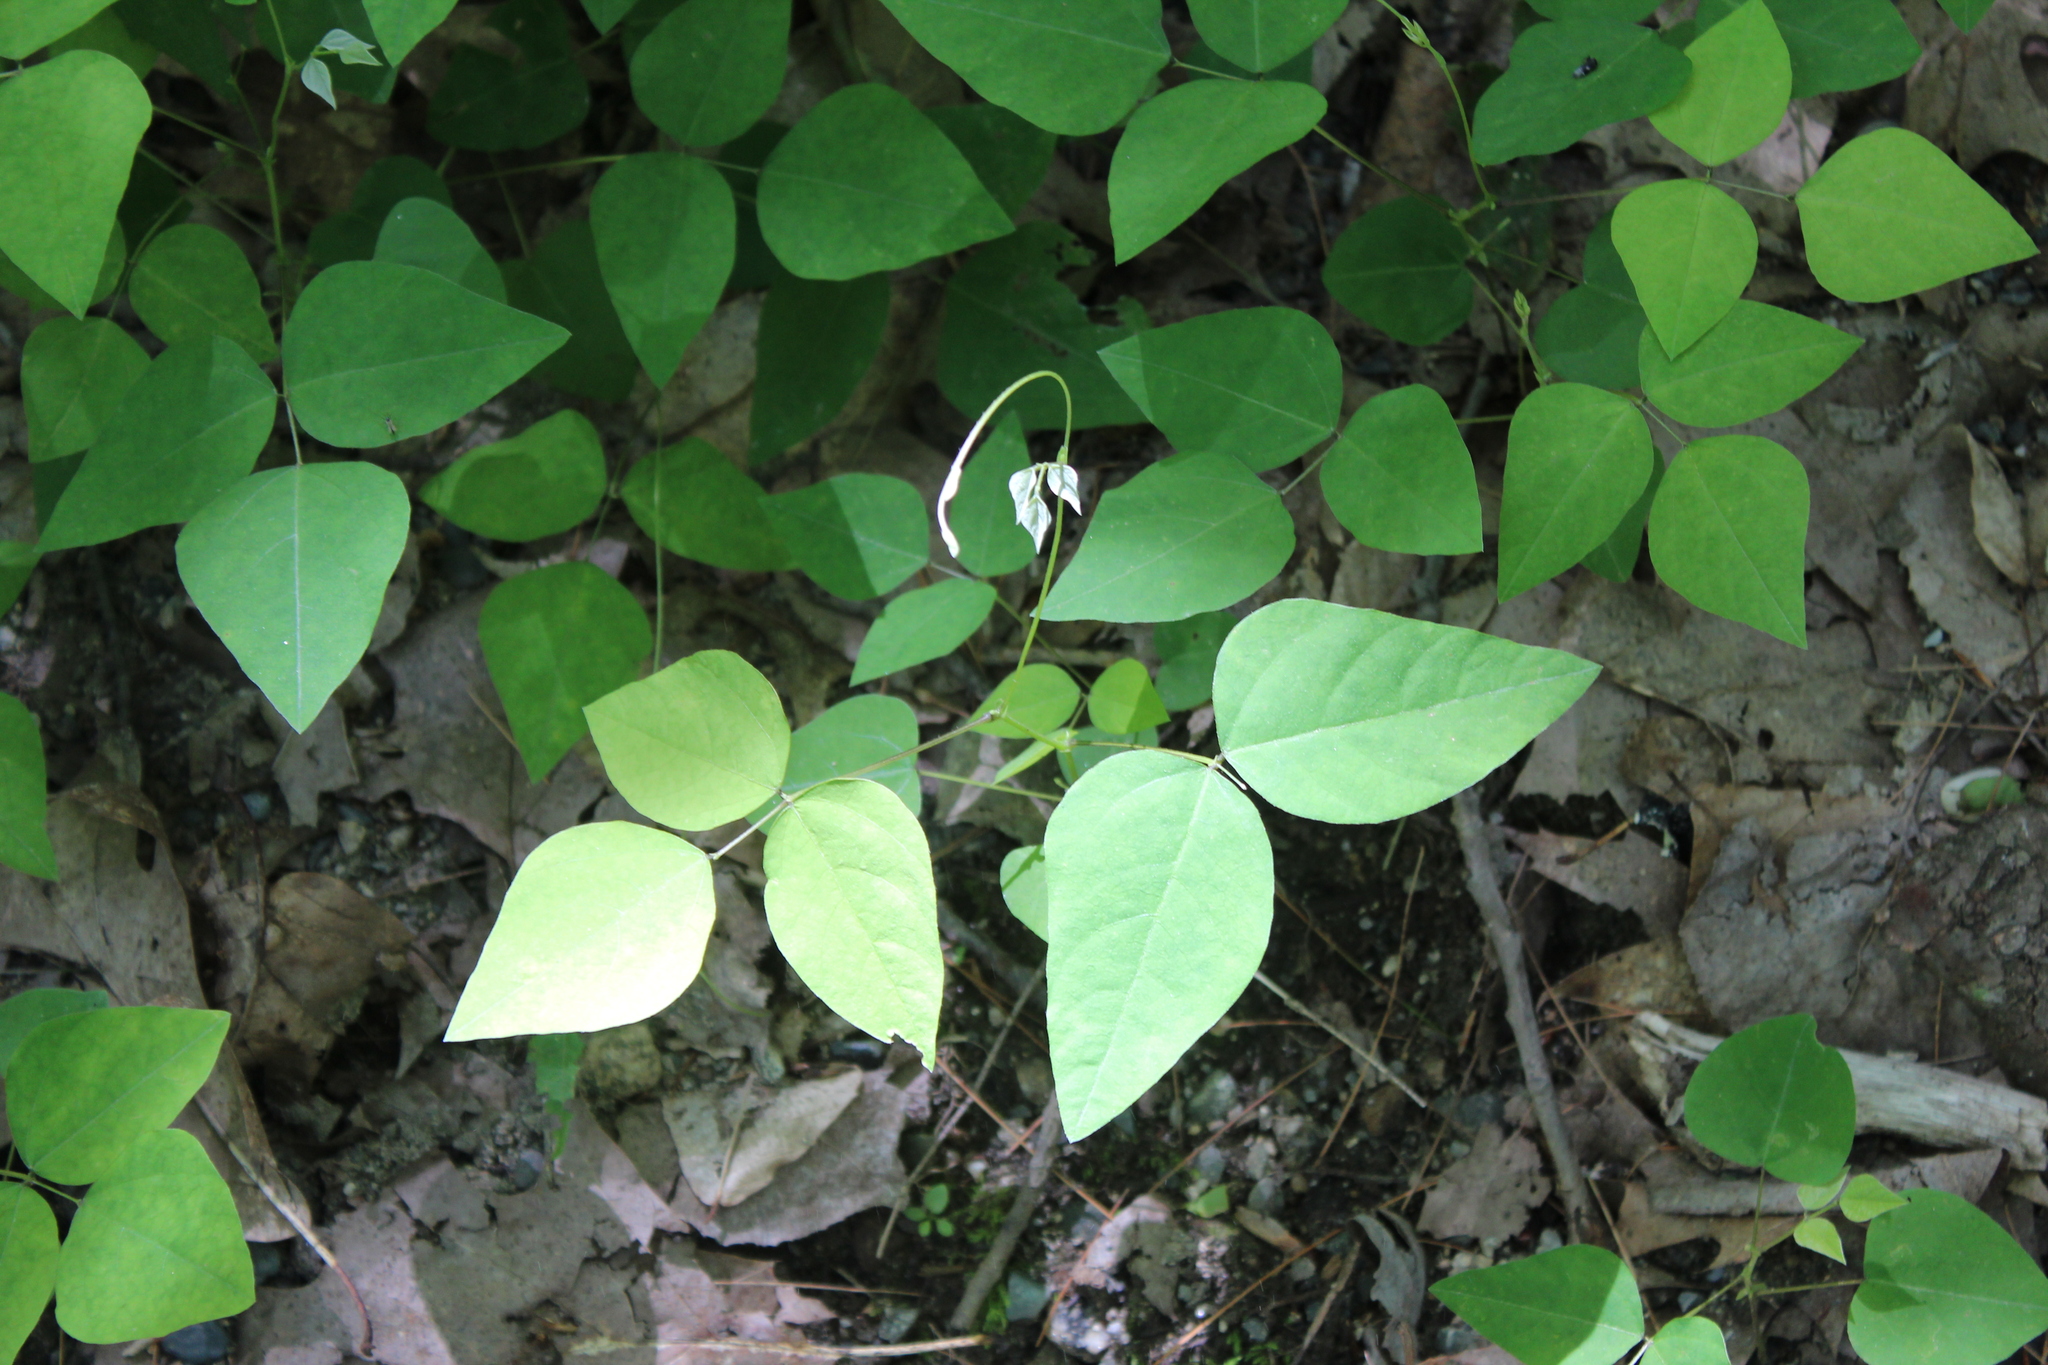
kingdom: Plantae
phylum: Tracheophyta
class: Magnoliopsida
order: Fabales
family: Fabaceae
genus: Amphicarpaea
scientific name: Amphicarpaea bracteata
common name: American hog peanut
